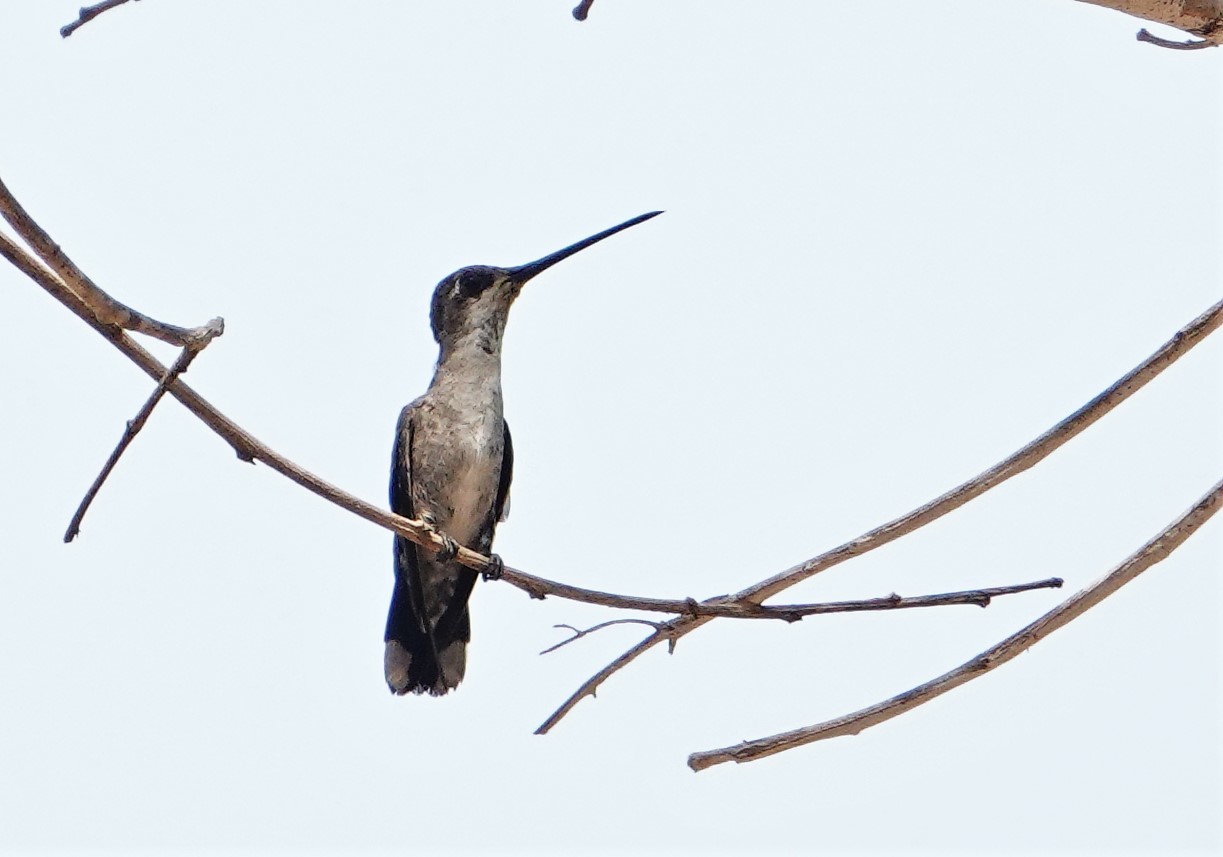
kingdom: Animalia
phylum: Chordata
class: Aves
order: Apodiformes
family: Trochilidae
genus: Heliomaster
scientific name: Heliomaster furcifer
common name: Blue-tufted starthroat
